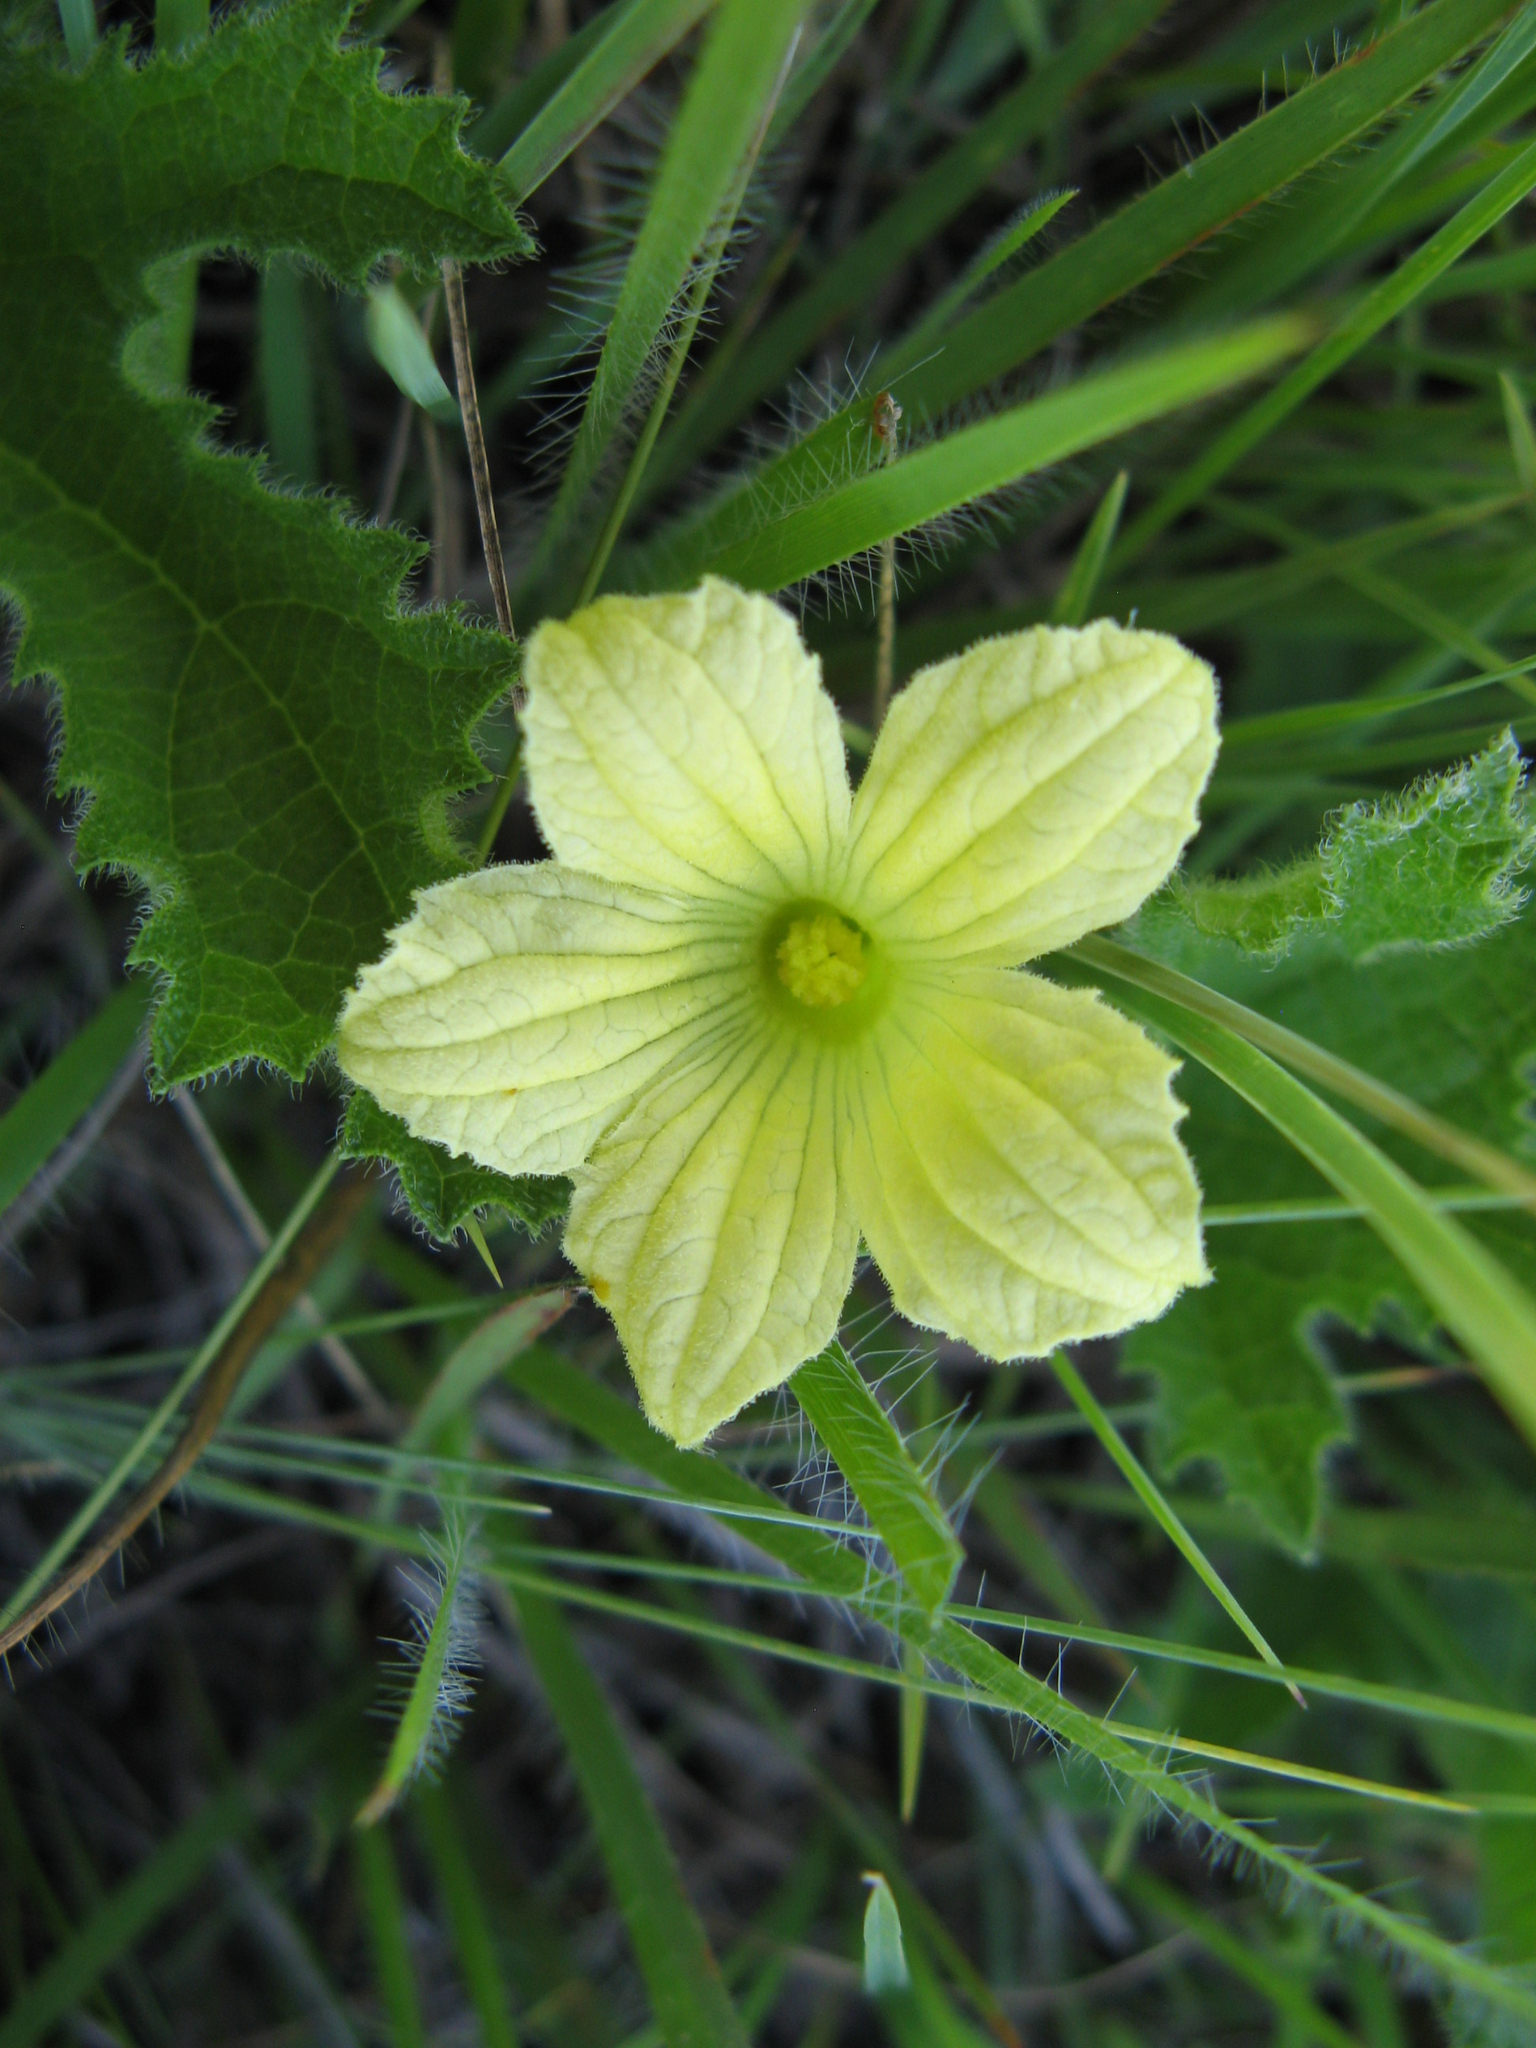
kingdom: Plantae
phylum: Tracheophyta
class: Magnoliopsida
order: Cucurbitales
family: Cucurbitaceae
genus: Cucumis
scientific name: Cucumis hirsutus
